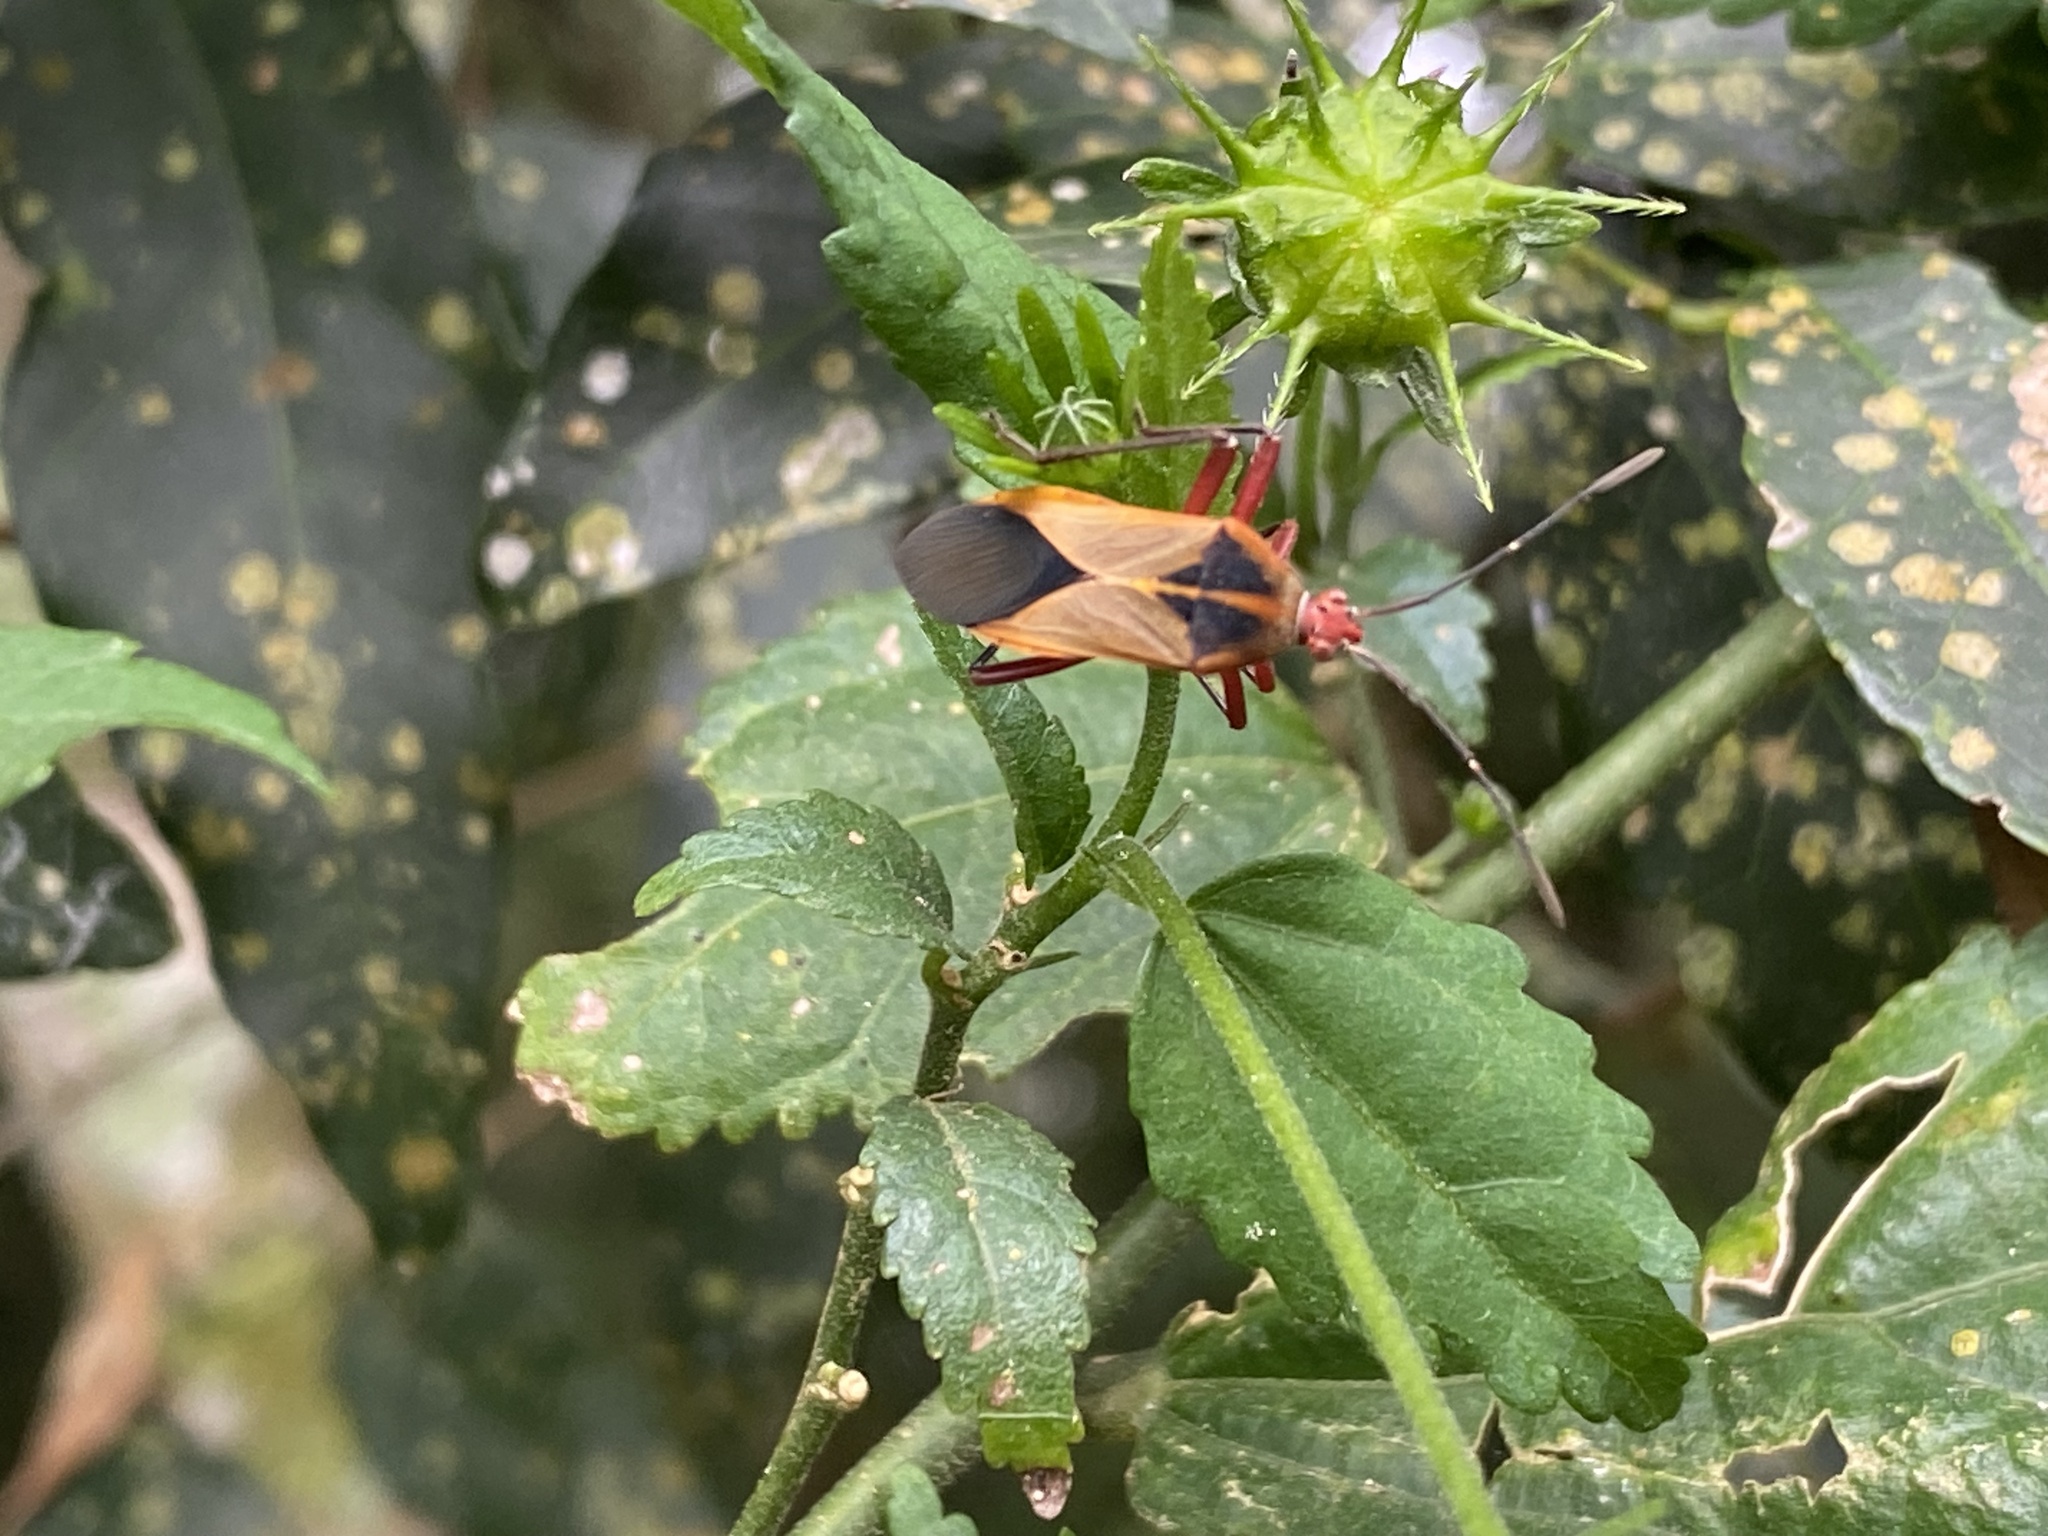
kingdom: Animalia
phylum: Arthropoda
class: Insecta
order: Hemiptera
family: Coreidae
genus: Hypselonotus
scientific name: Hypselonotus bitrianguliger
